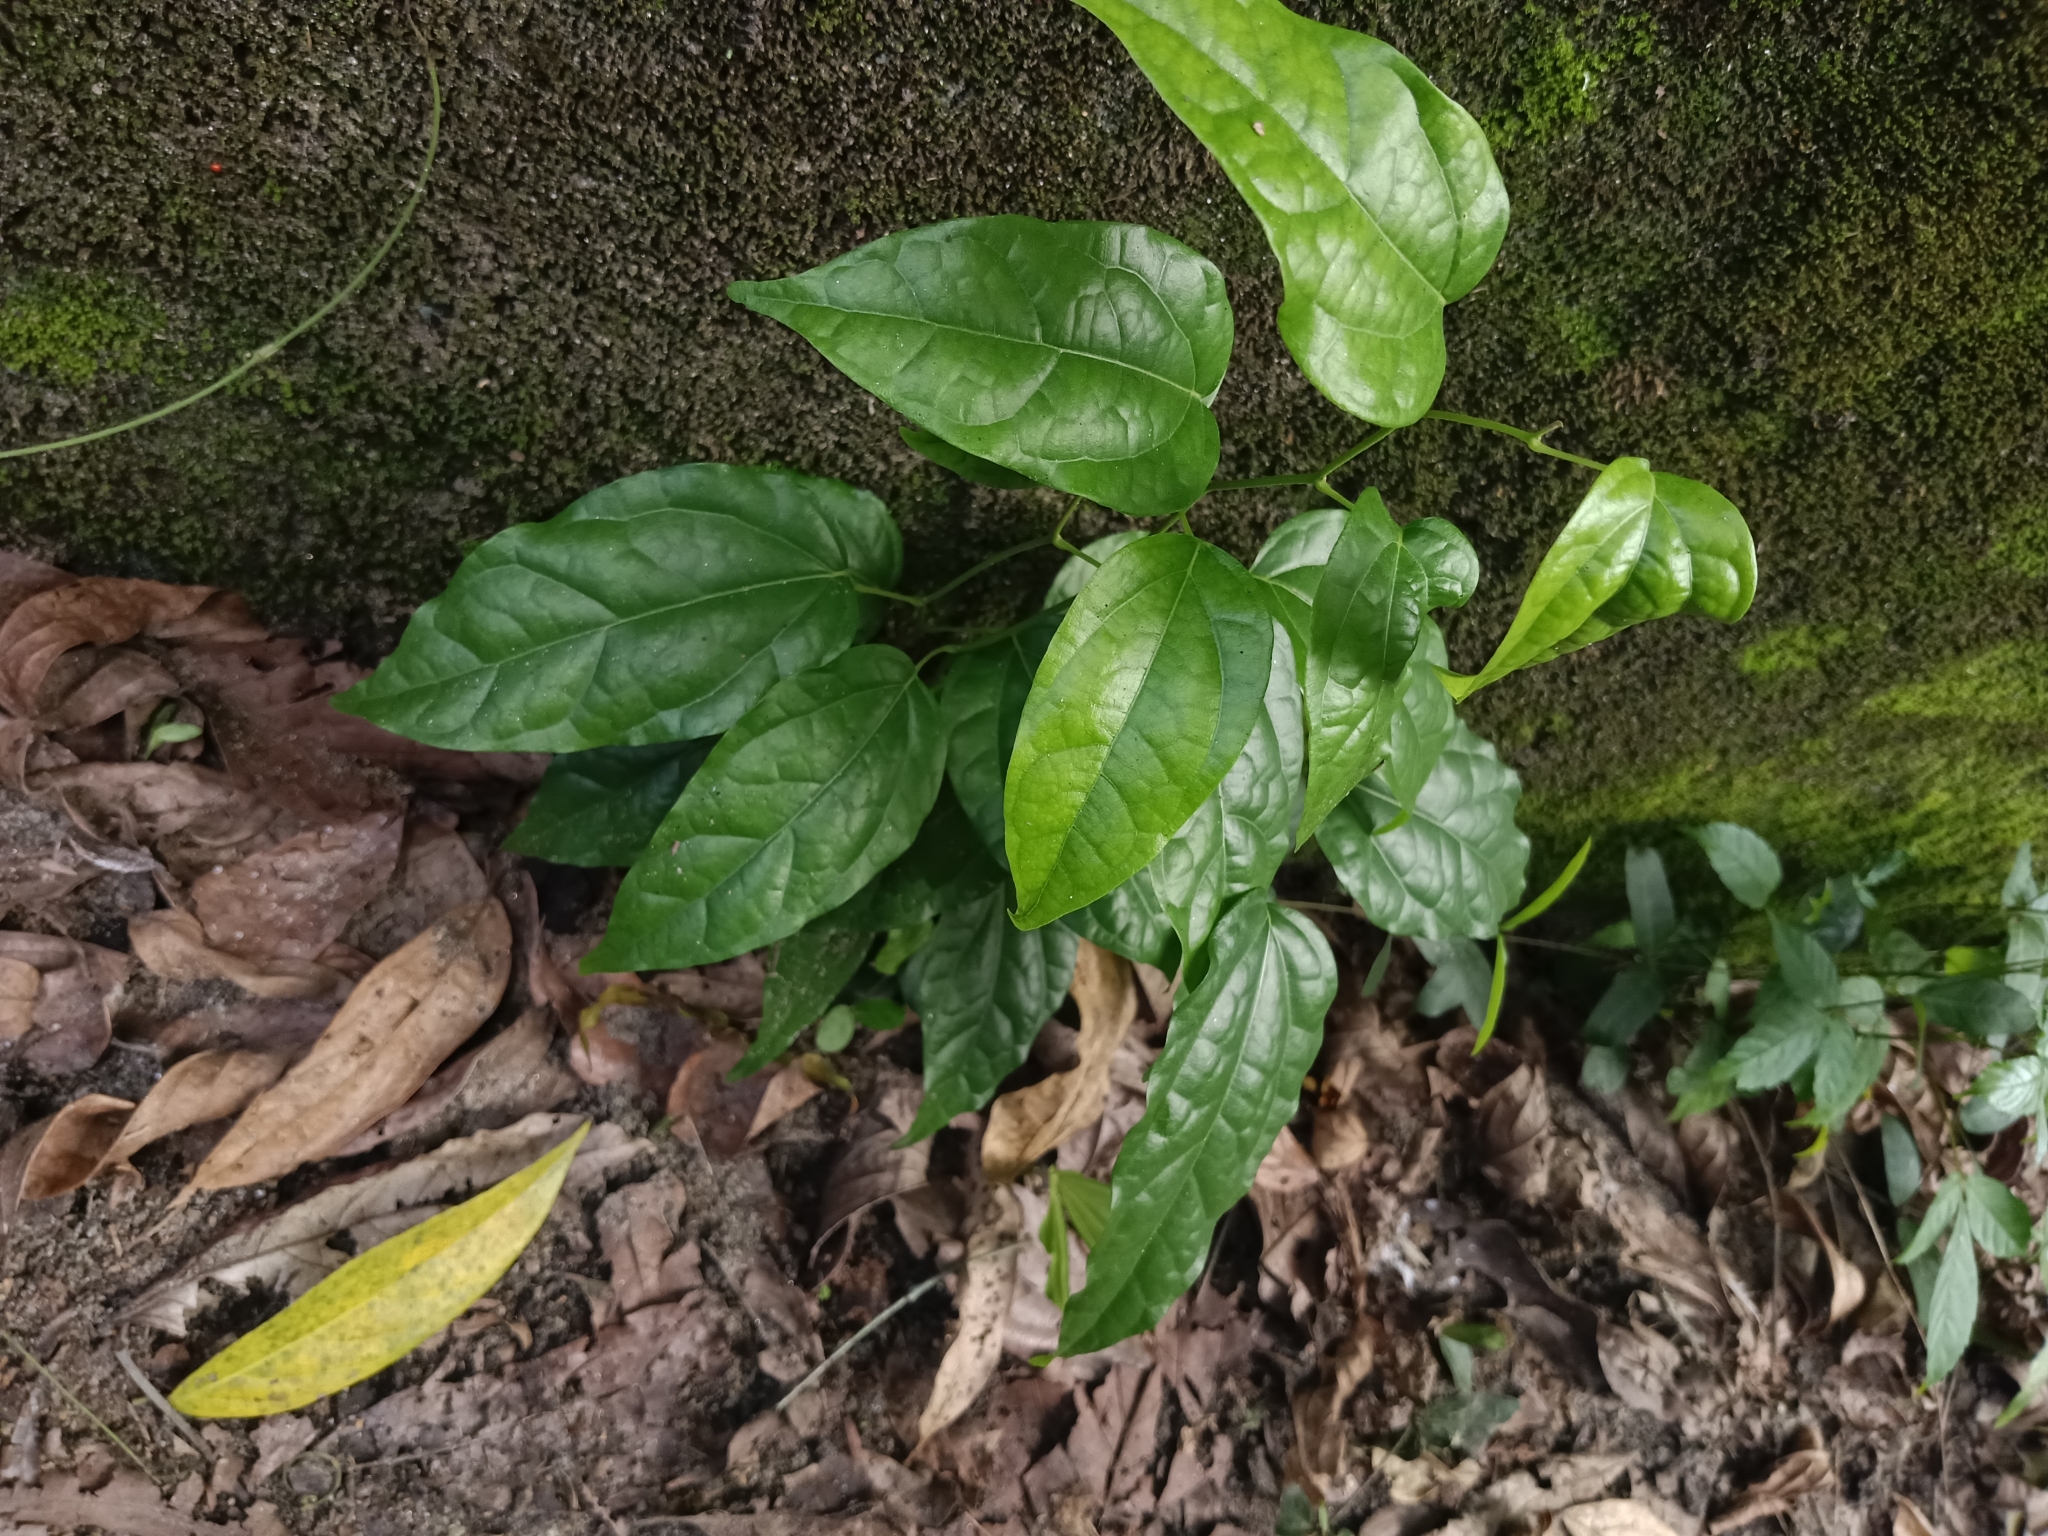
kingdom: Plantae
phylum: Tracheophyta
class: Magnoliopsida
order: Ranunculales
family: Menispermaceae
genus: Tiliacora
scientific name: Tiliacora acuminata
